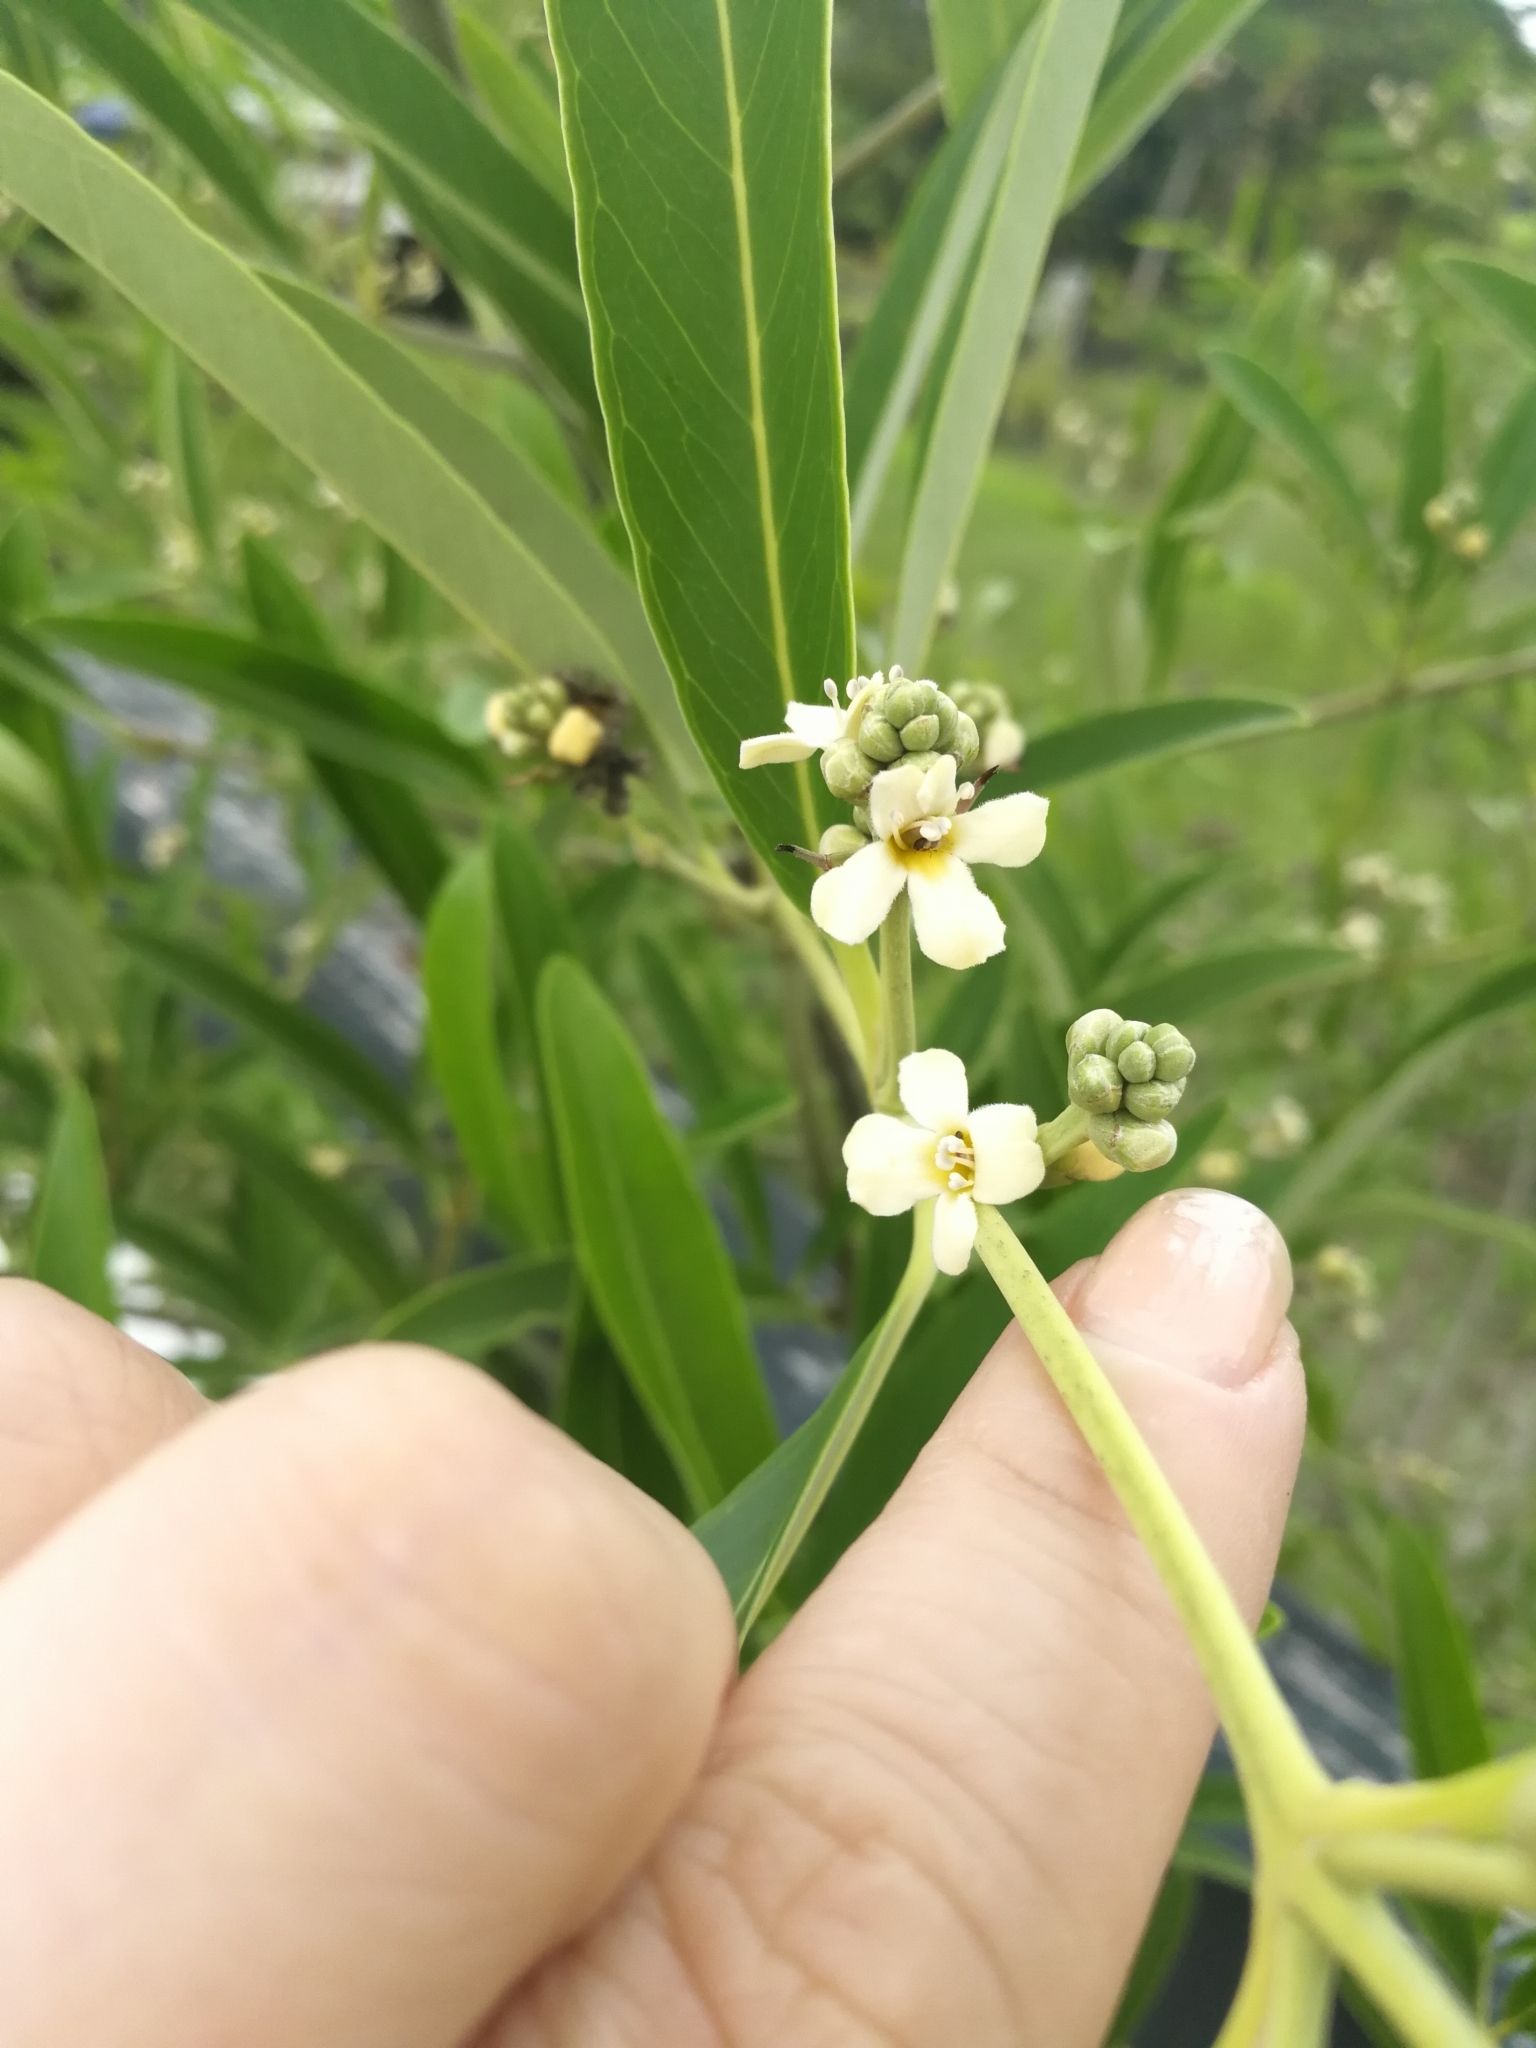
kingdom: Plantae
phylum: Tracheophyta
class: Magnoliopsida
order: Lamiales
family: Acanthaceae
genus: Avicennia
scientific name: Avicennia germinans
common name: Black mangrove
